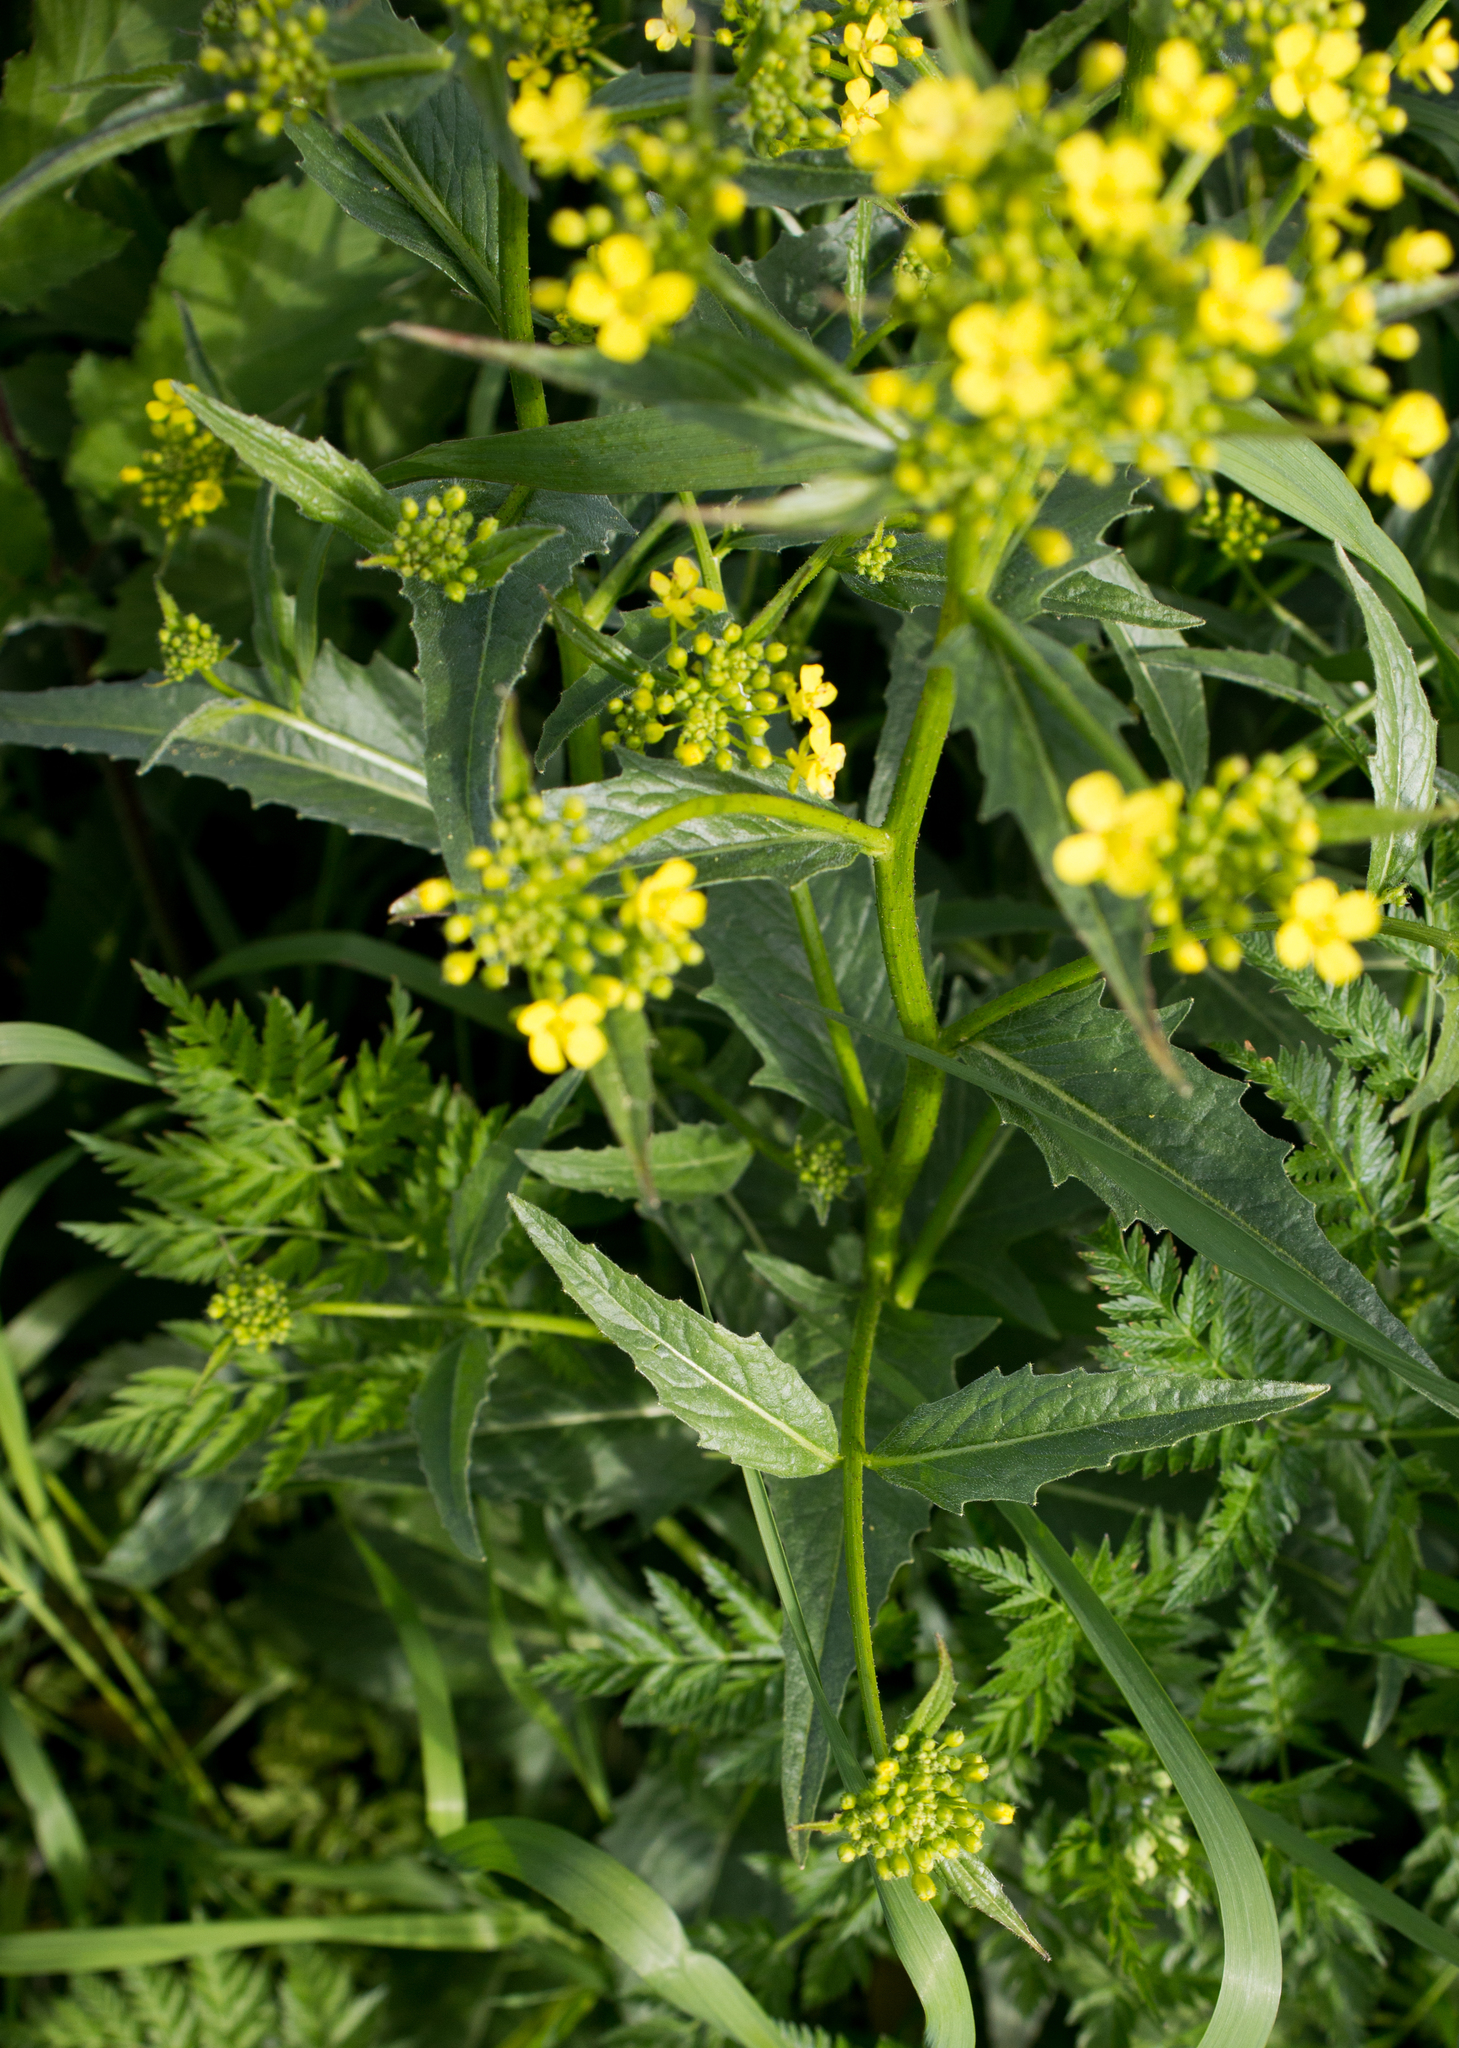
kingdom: Plantae
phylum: Tracheophyta
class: Magnoliopsida
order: Brassicales
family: Brassicaceae
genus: Bunias
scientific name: Bunias orientalis
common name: Warty-cabbage
